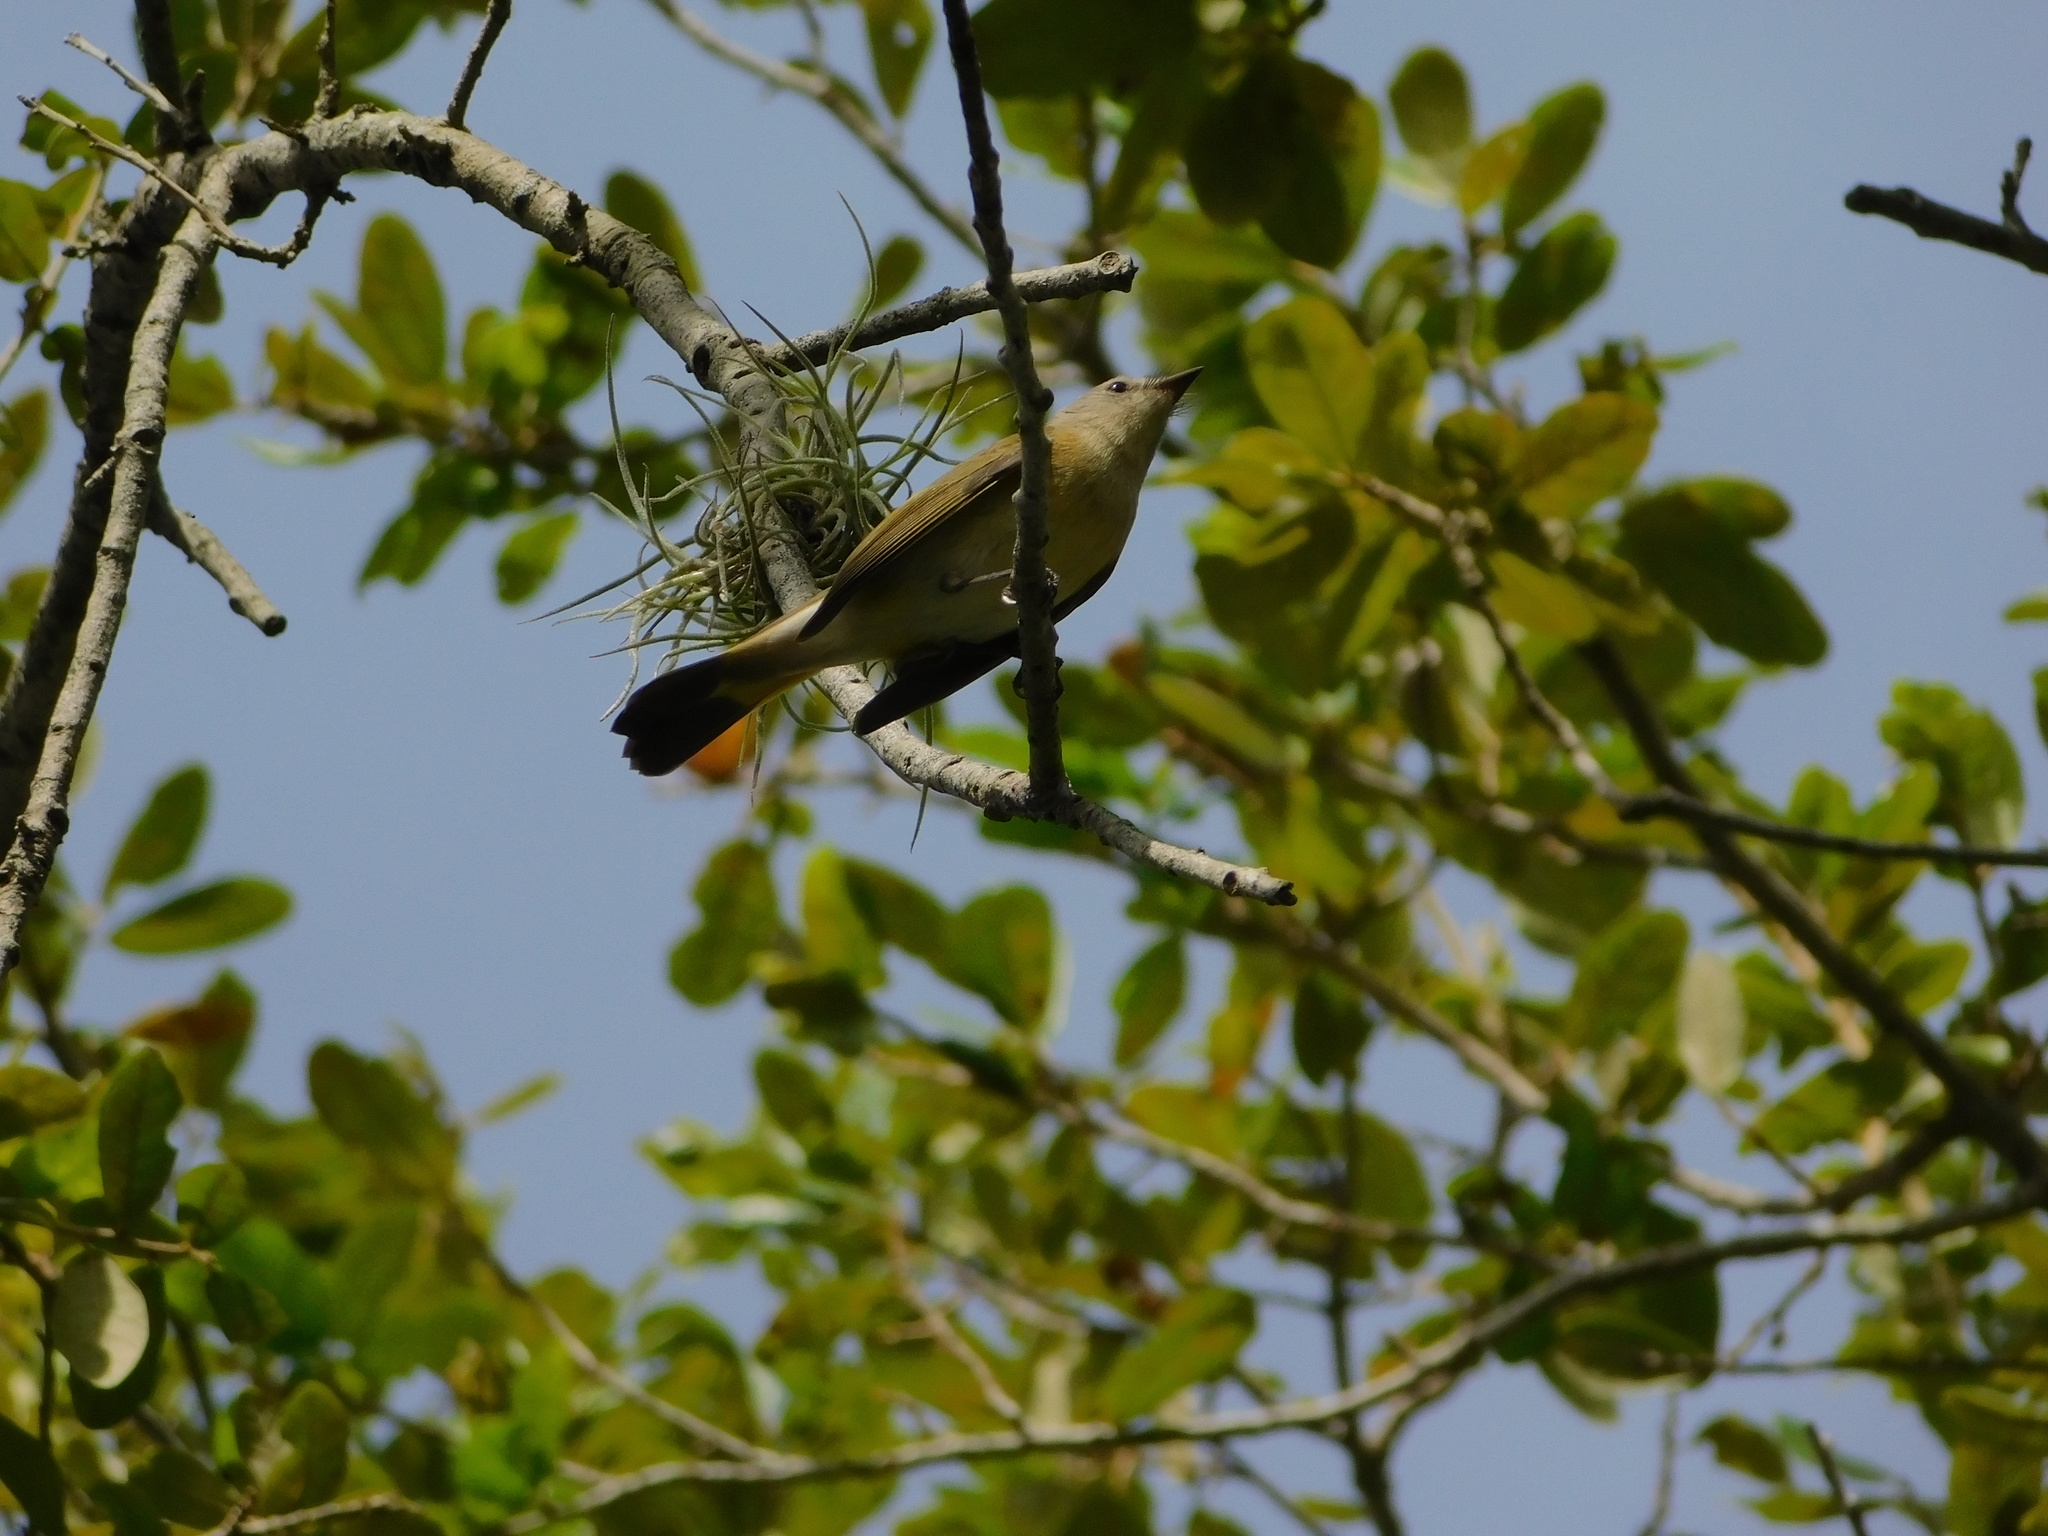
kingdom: Animalia
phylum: Chordata
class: Aves
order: Passeriformes
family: Parulidae
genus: Setophaga
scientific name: Setophaga ruticilla
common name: American redstart
